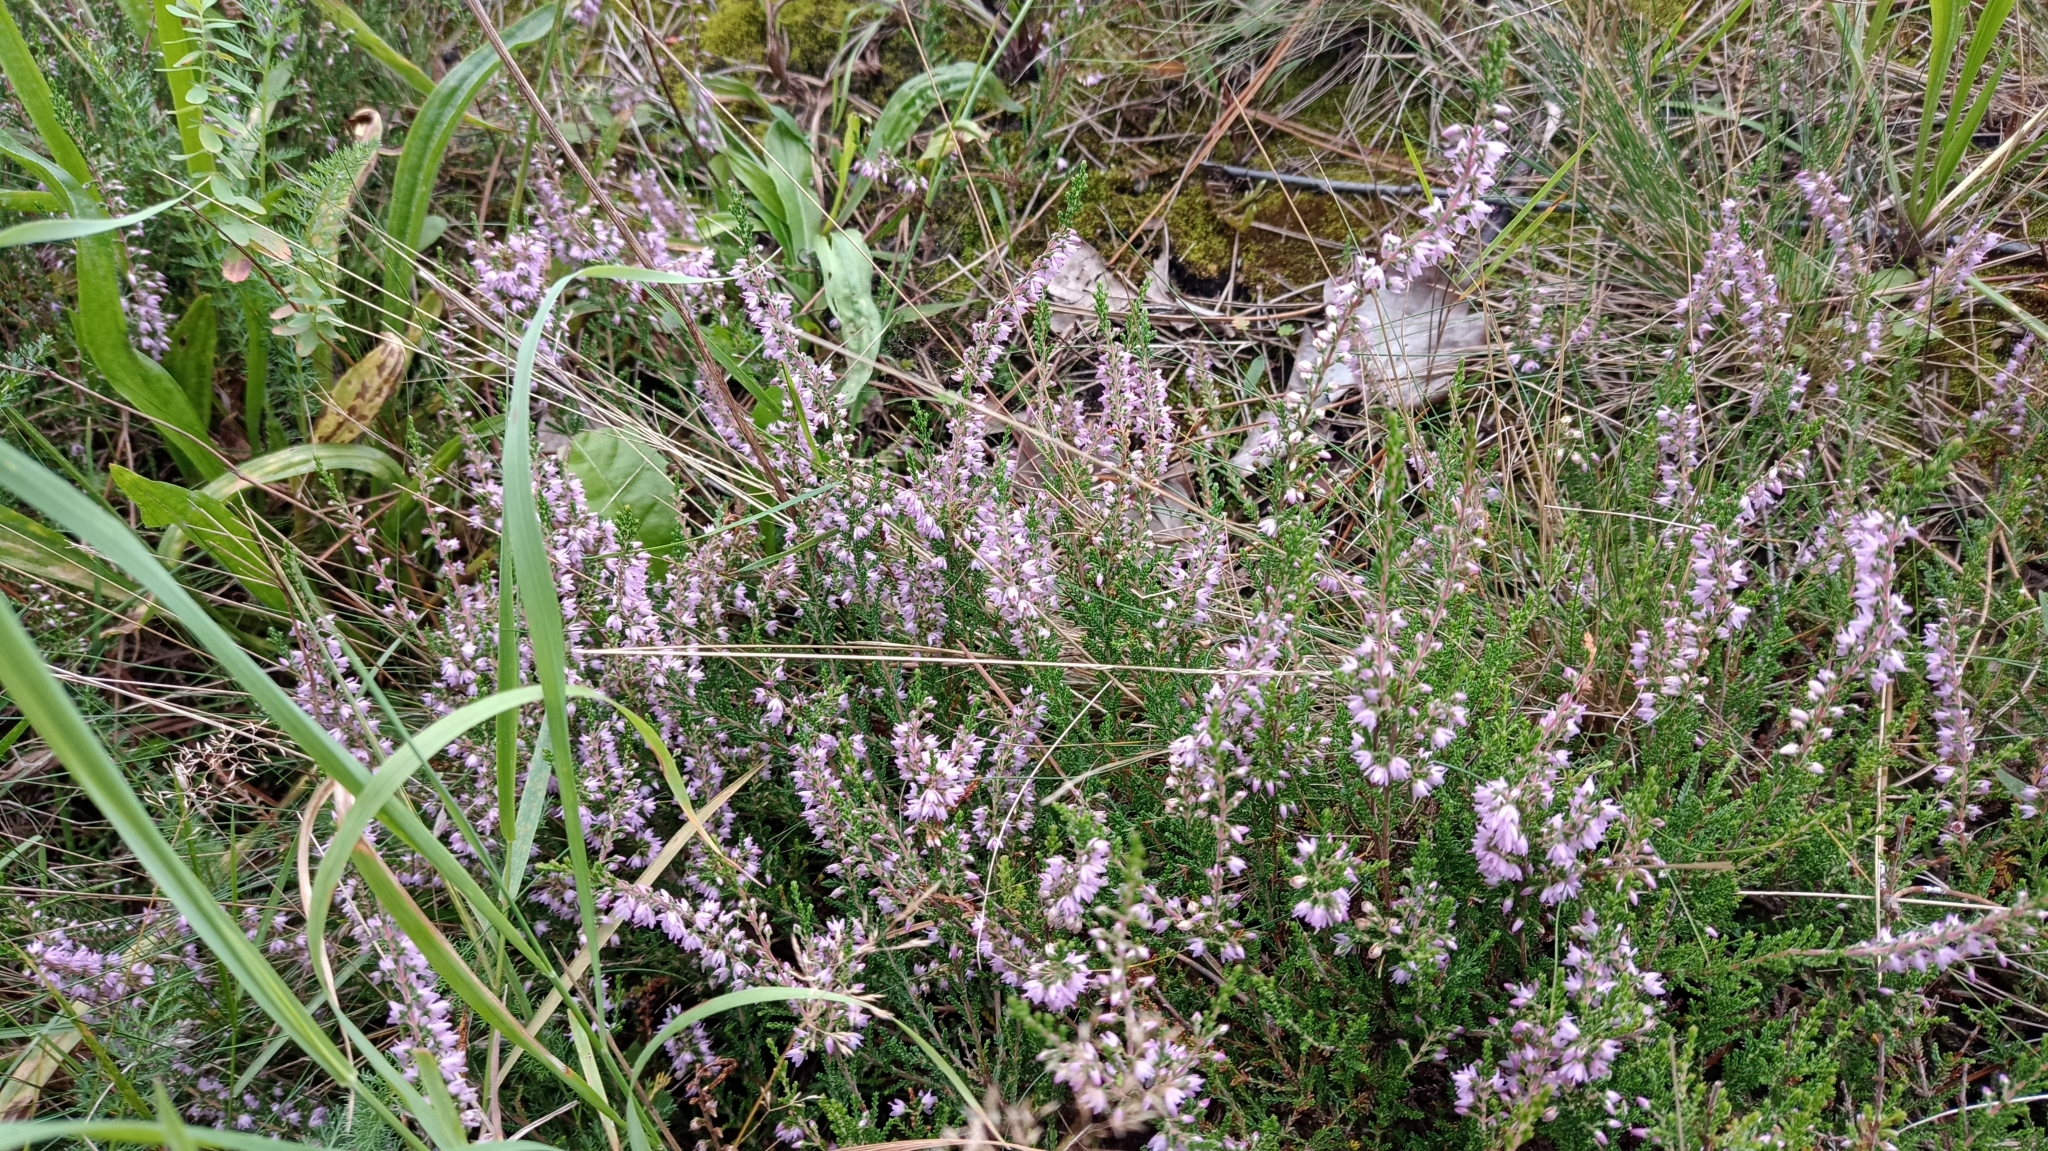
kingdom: Plantae
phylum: Tracheophyta
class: Magnoliopsida
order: Ericales
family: Ericaceae
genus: Calluna
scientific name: Calluna vulgaris
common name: Heather
